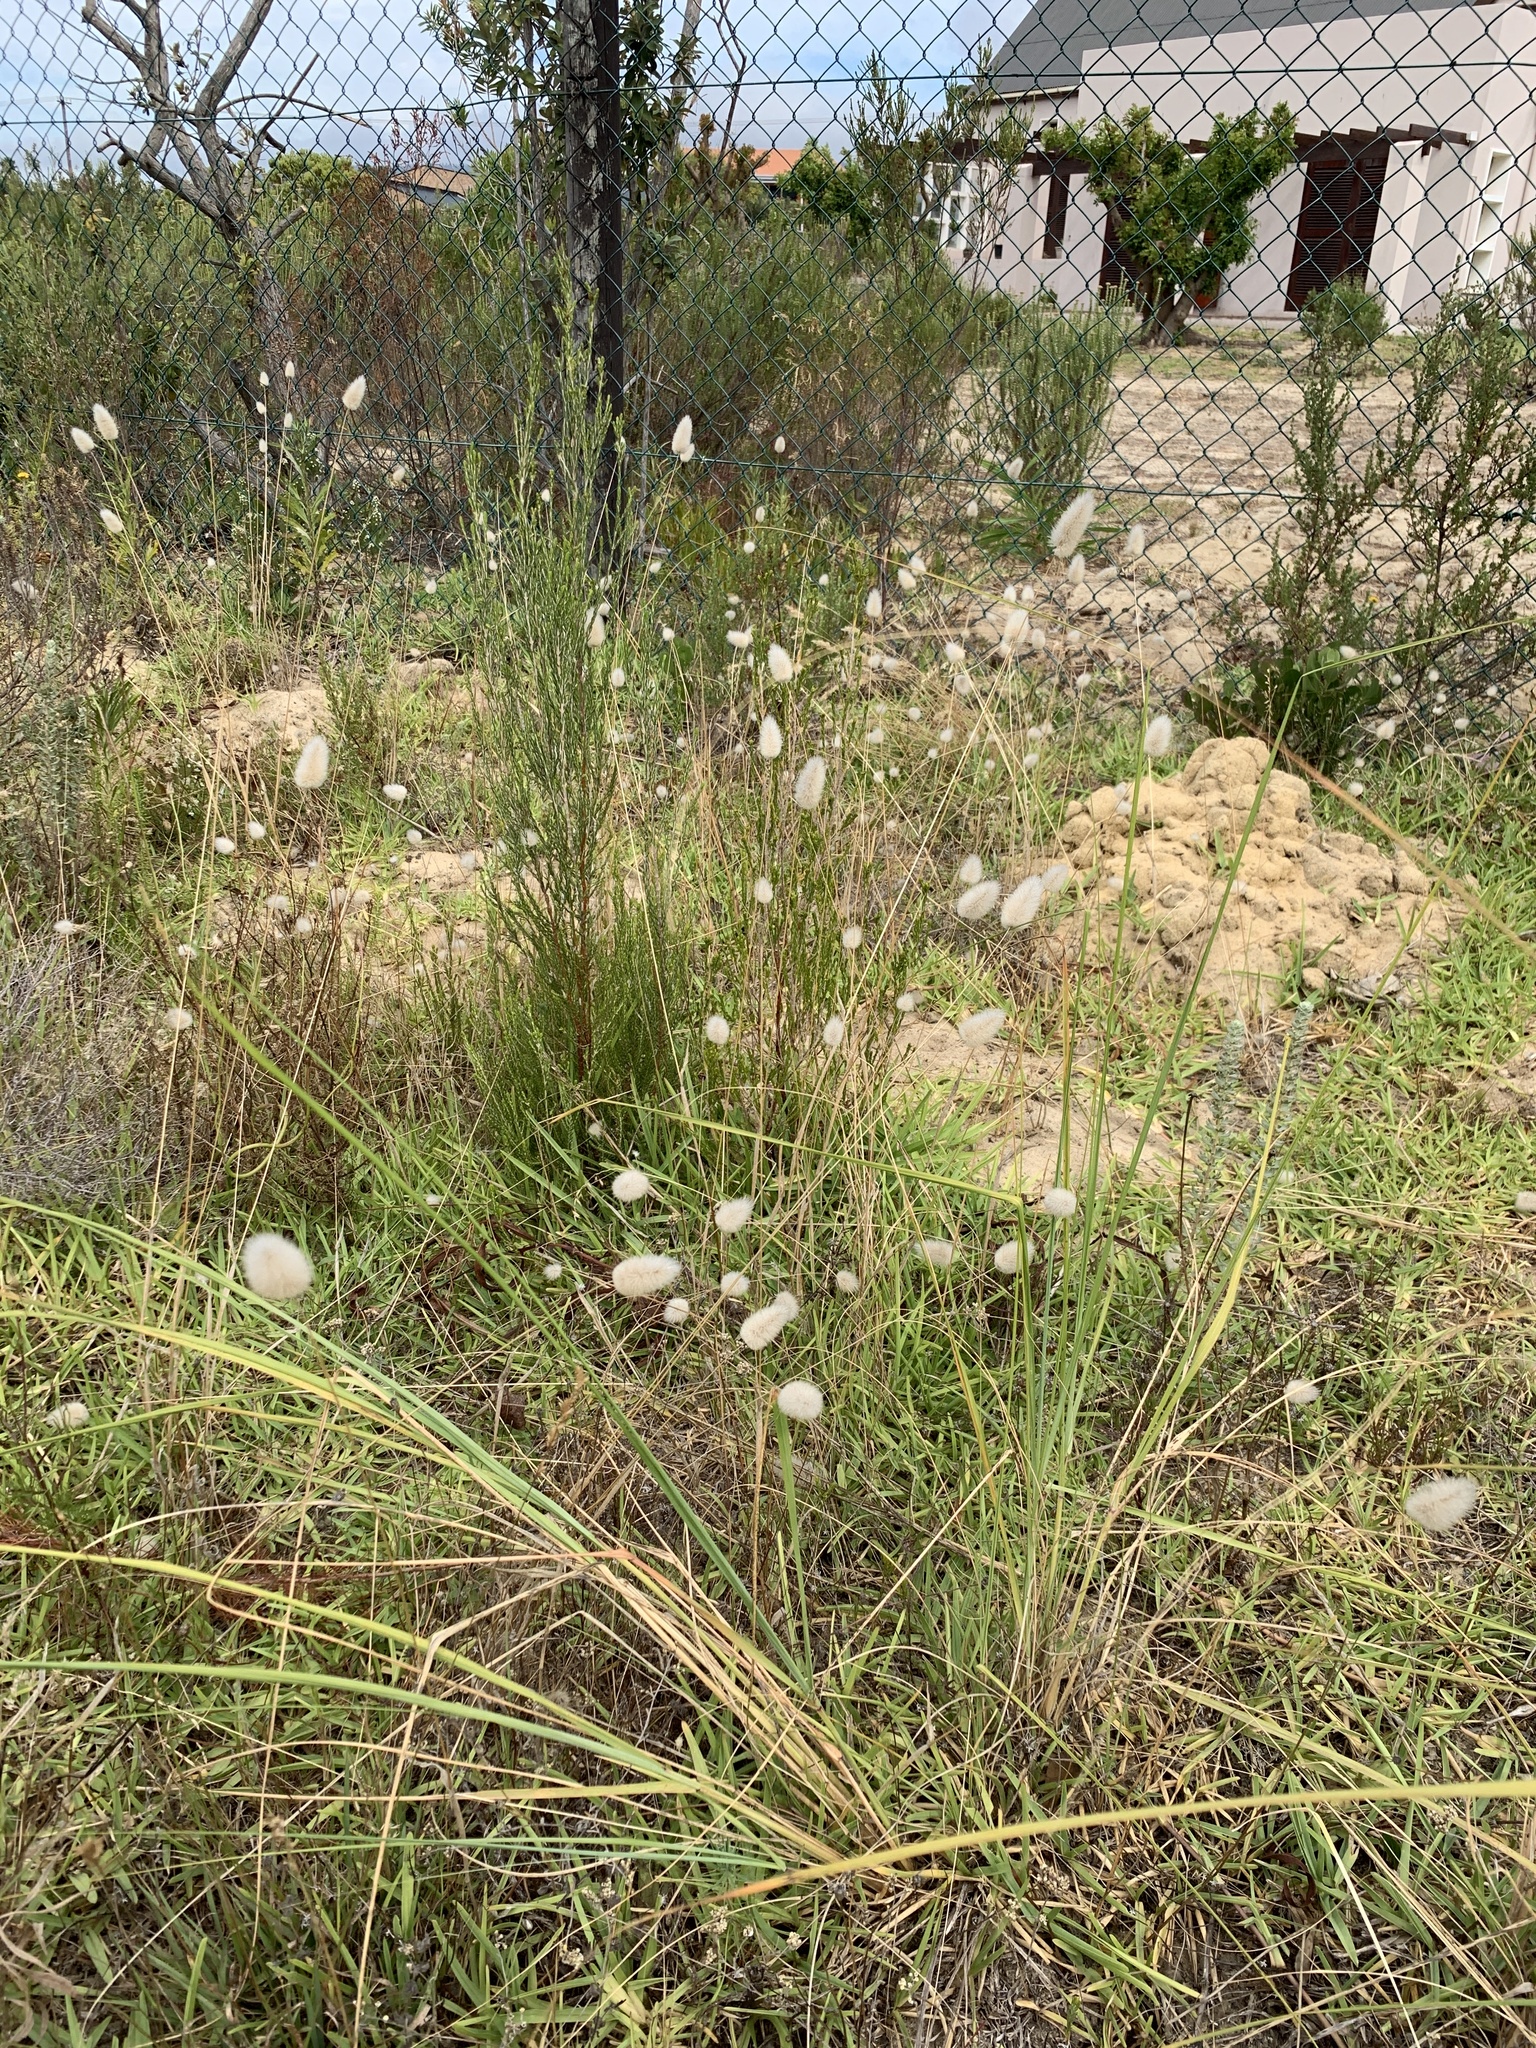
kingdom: Plantae
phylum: Tracheophyta
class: Liliopsida
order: Poales
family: Poaceae
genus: Lagurus
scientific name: Lagurus ovatus
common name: Hare's-tail
